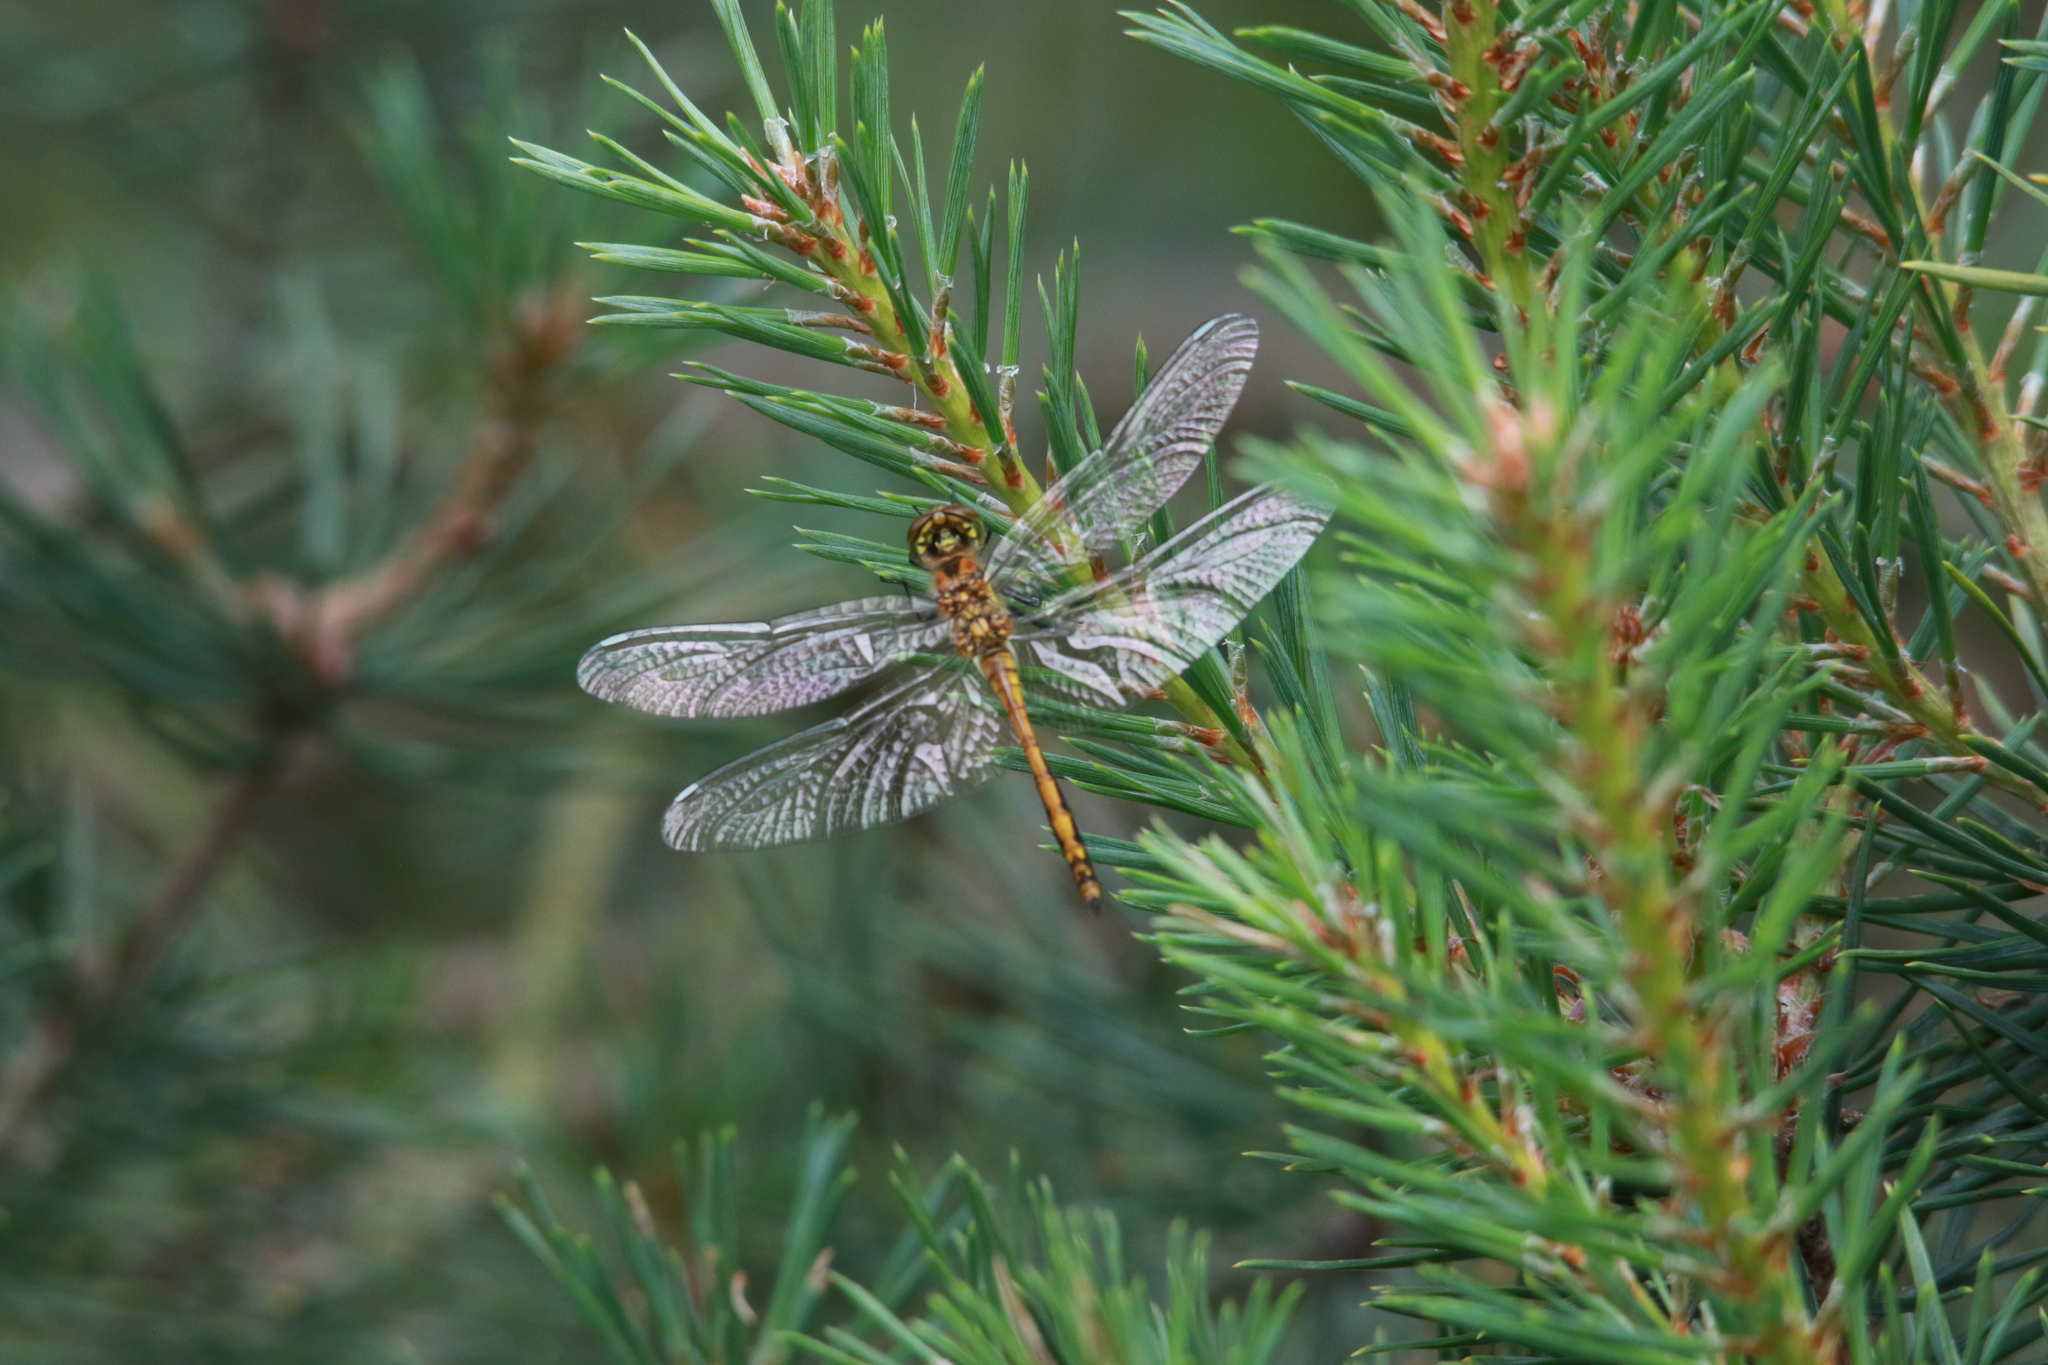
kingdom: Animalia
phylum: Arthropoda
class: Insecta
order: Odonata
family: Libellulidae
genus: Sympetrum
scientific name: Sympetrum danae
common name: Black darter
